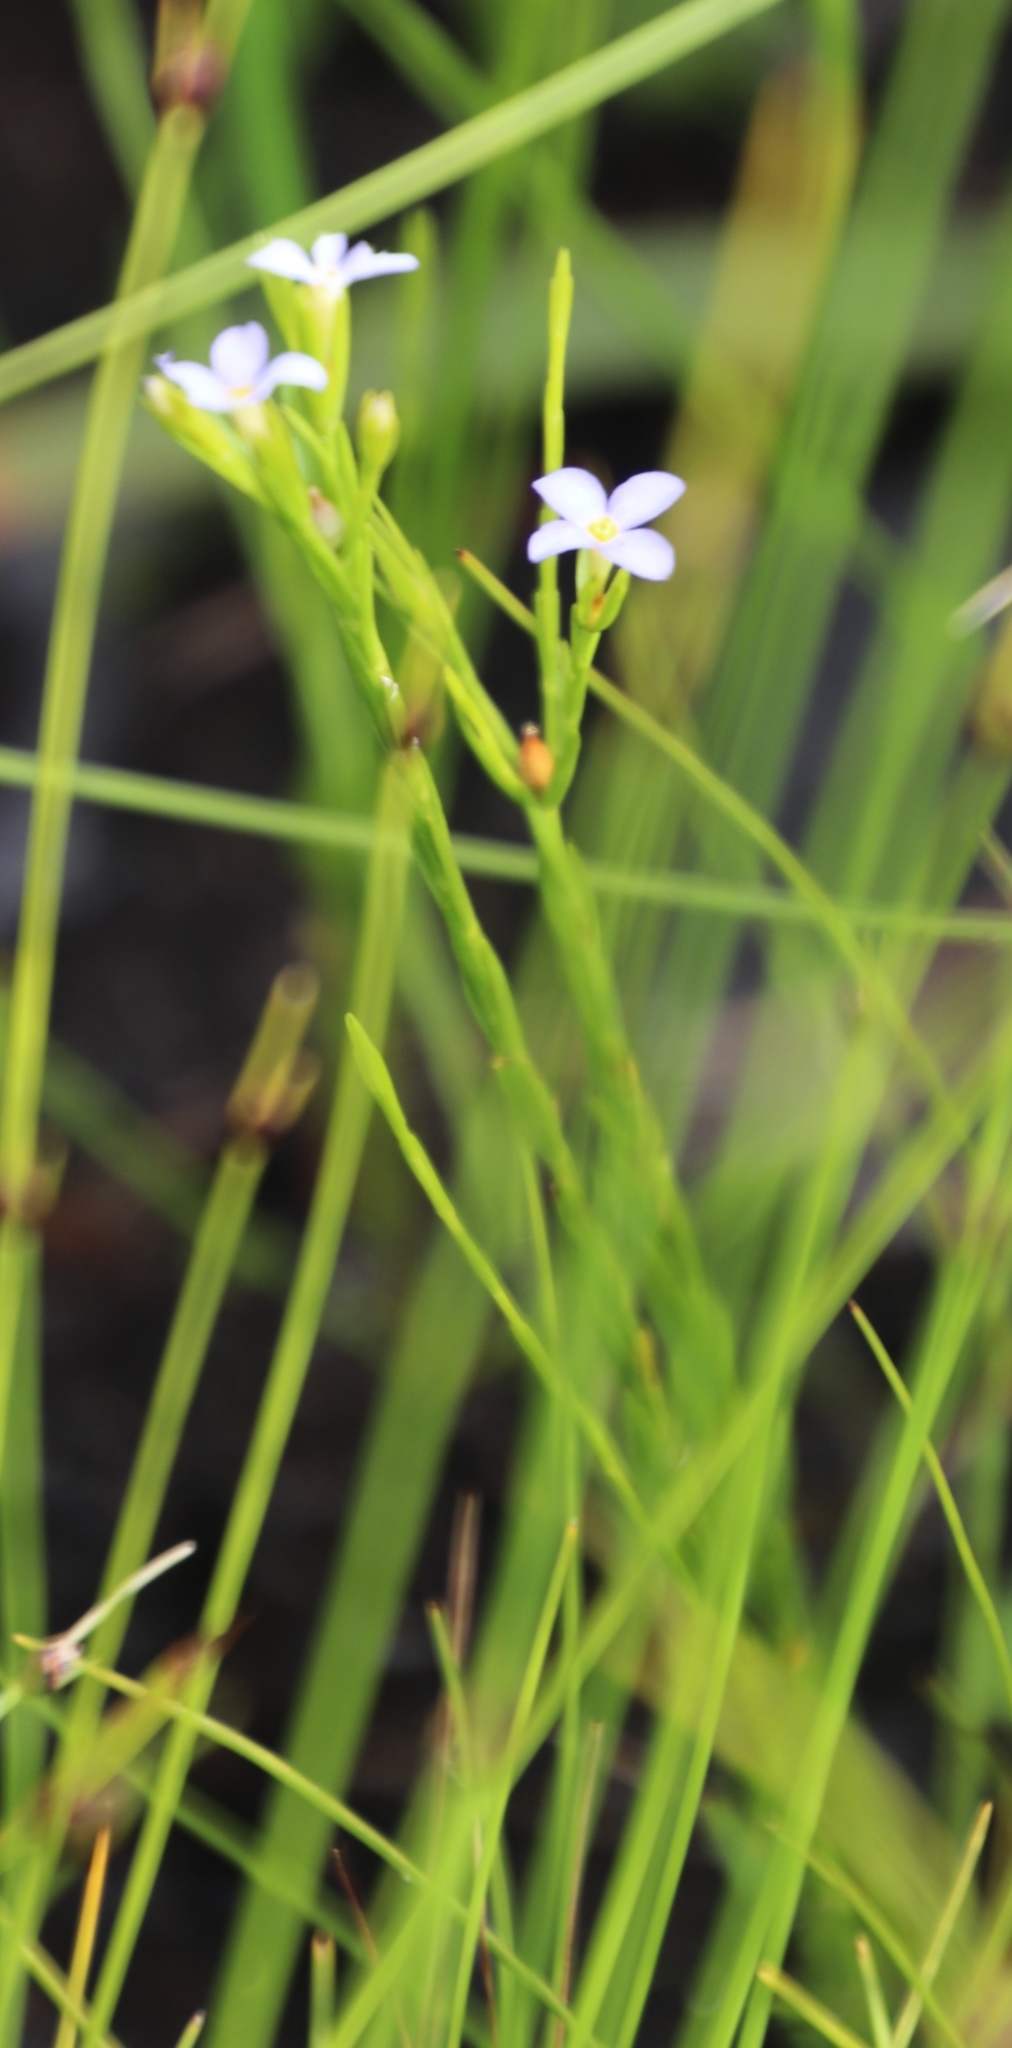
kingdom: Plantae
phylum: Tracheophyta
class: Magnoliopsida
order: Malvales
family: Thymelaeaceae
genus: Gnidia
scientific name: Gnidia linoides
